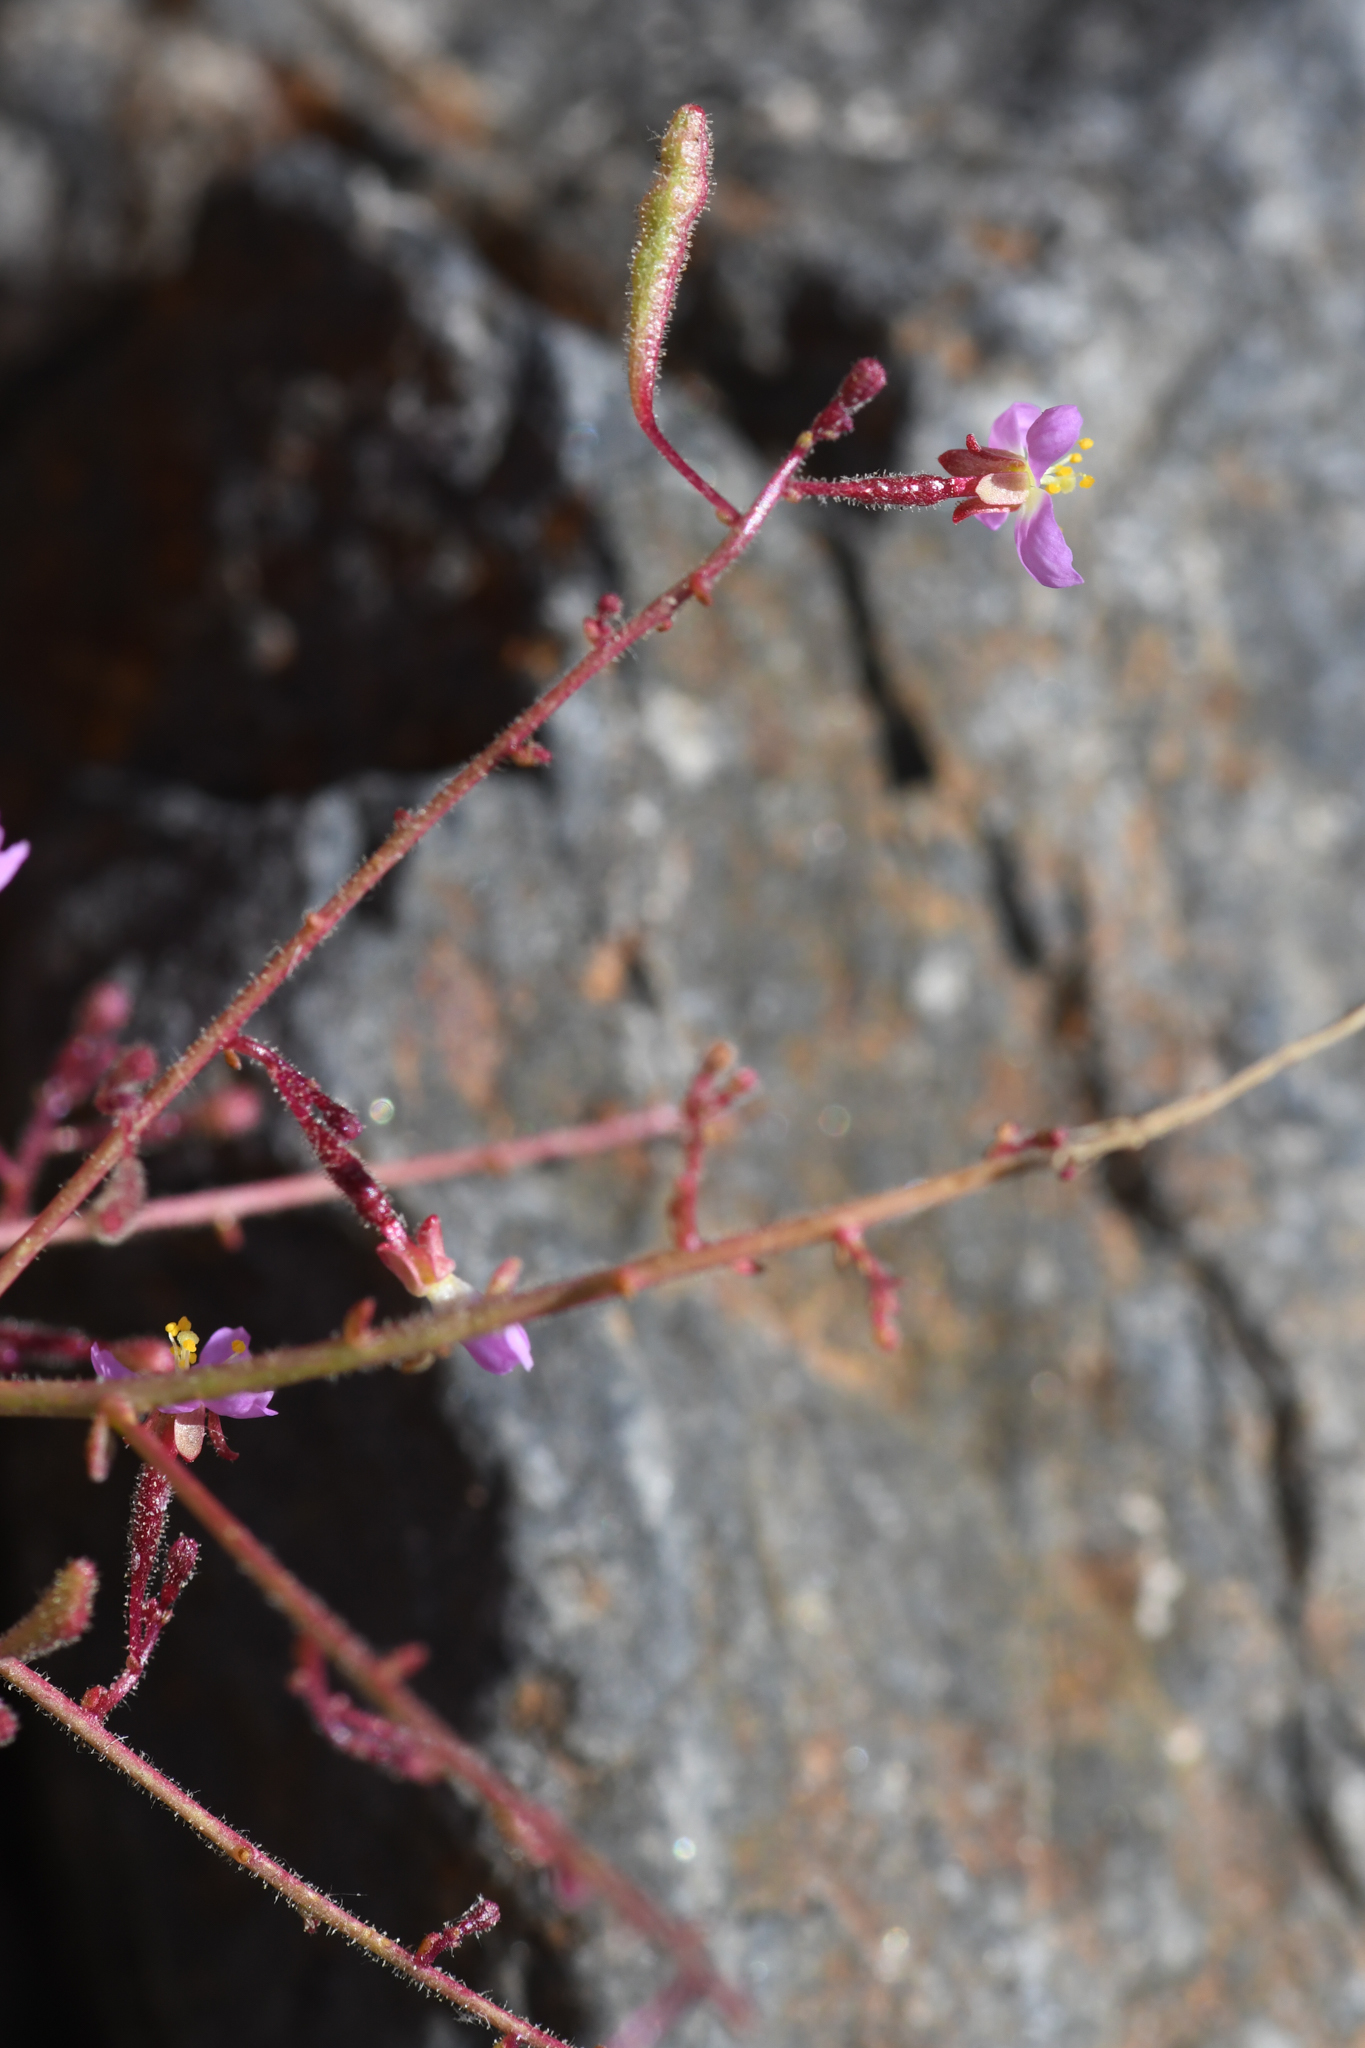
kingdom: Plantae
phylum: Tracheophyta
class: Magnoliopsida
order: Myrtales
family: Onagraceae
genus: Chylismia
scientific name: Chylismia heterochroma
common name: Shockley's evening primrose
